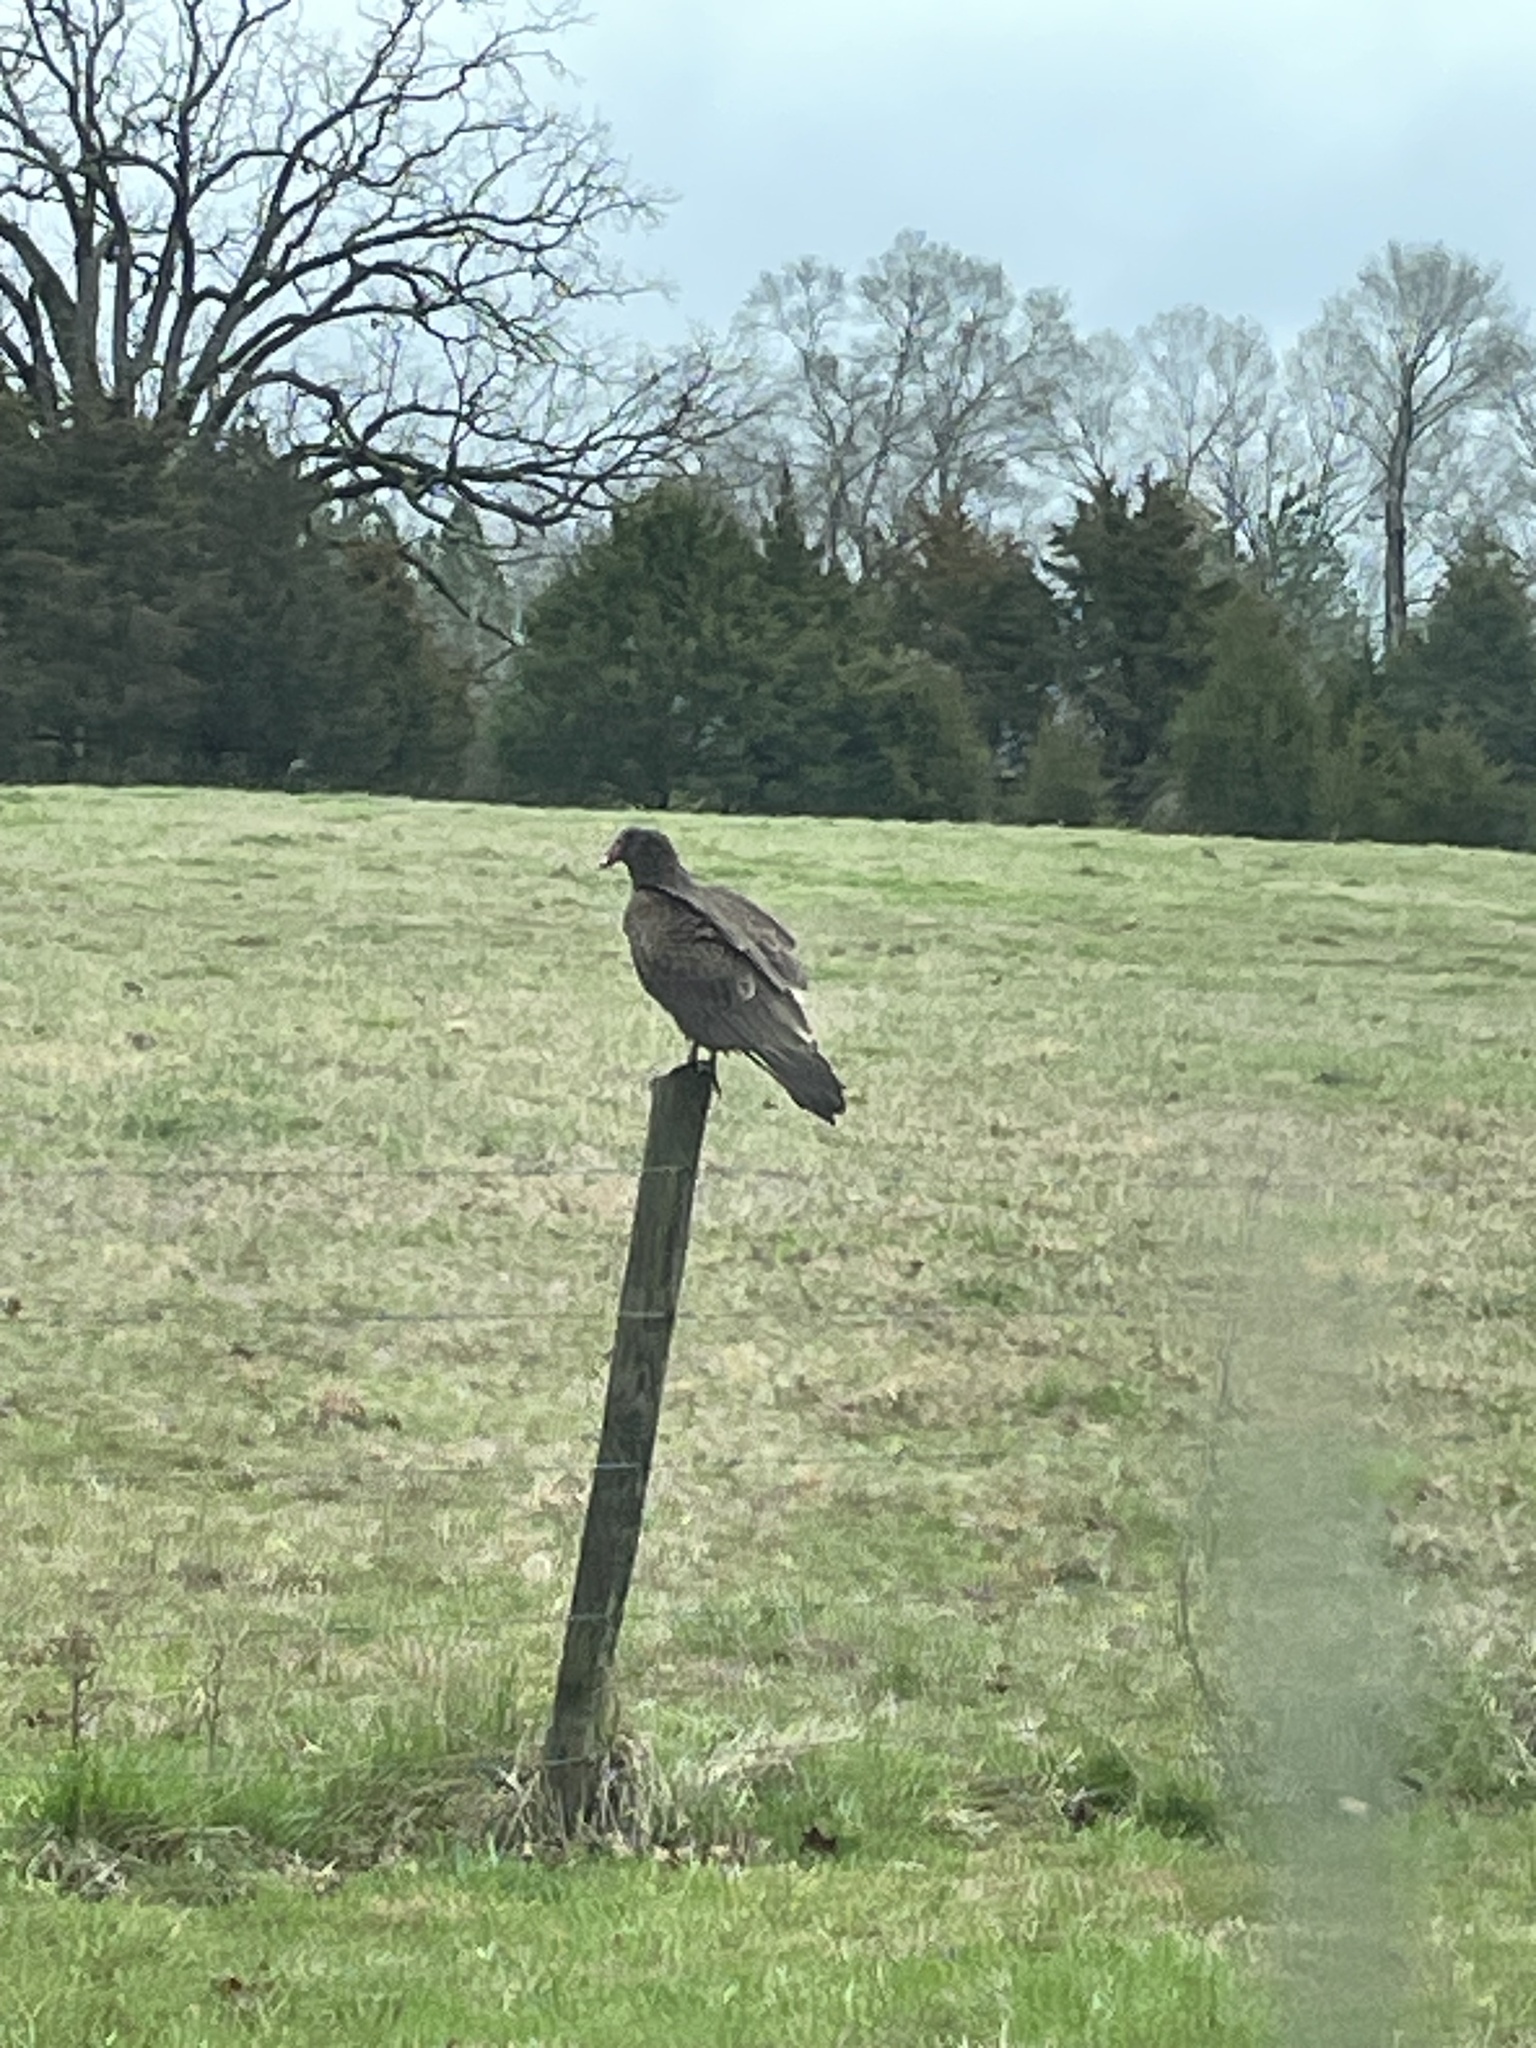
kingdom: Animalia
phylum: Chordata
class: Aves
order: Accipitriformes
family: Cathartidae
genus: Coragyps
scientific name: Coragyps atratus
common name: Black vulture
